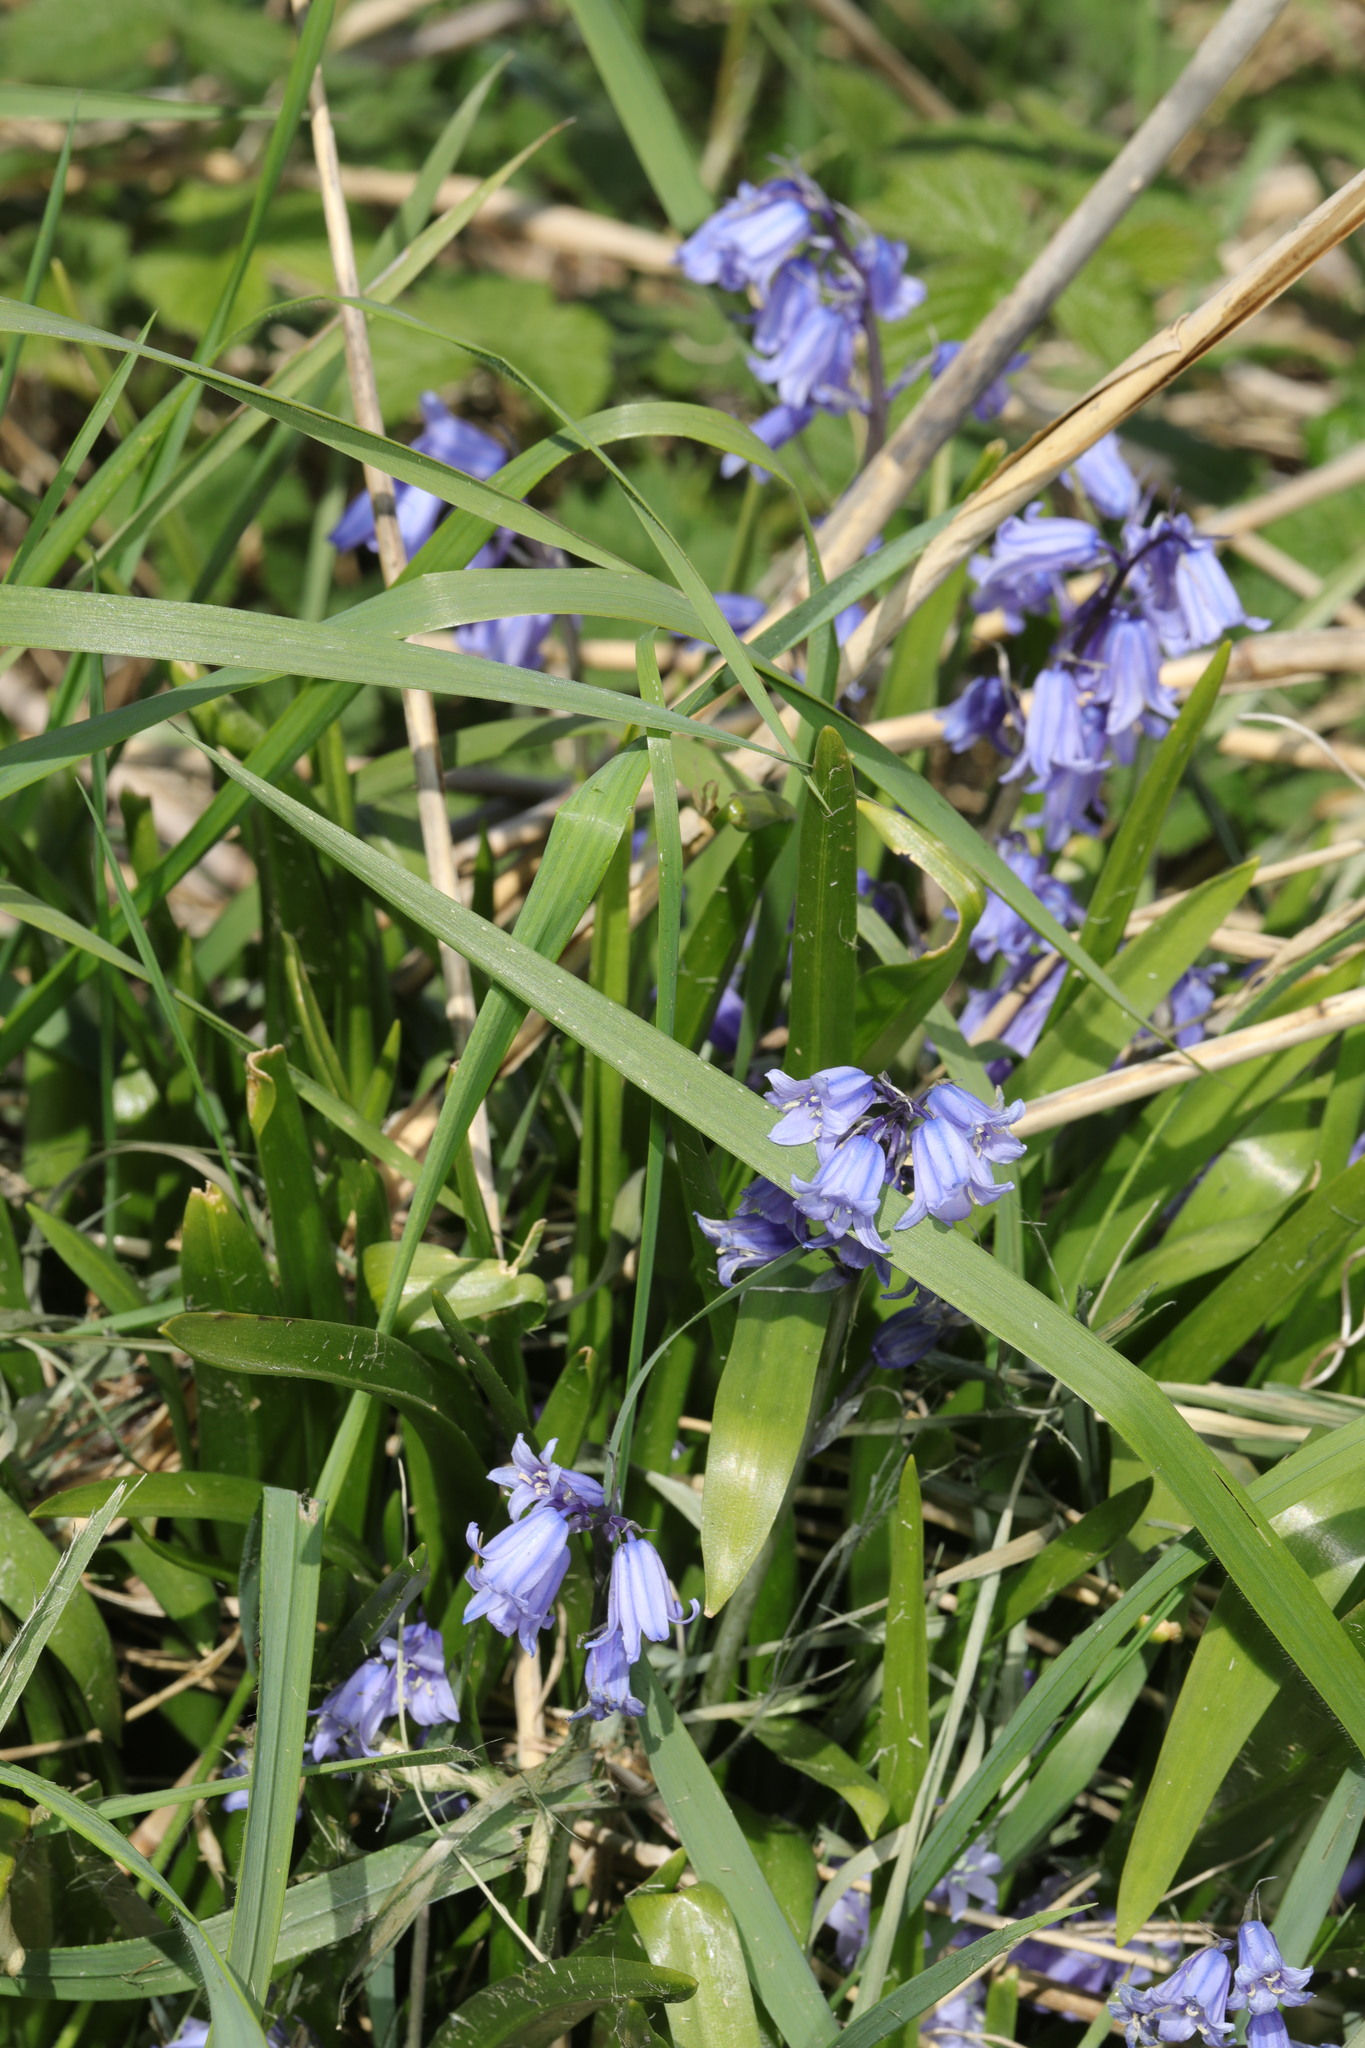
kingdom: Plantae
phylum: Tracheophyta
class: Liliopsida
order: Asparagales
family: Asparagaceae
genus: Hyacinthoides
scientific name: Hyacinthoides hispanica
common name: Spanish bluebell
